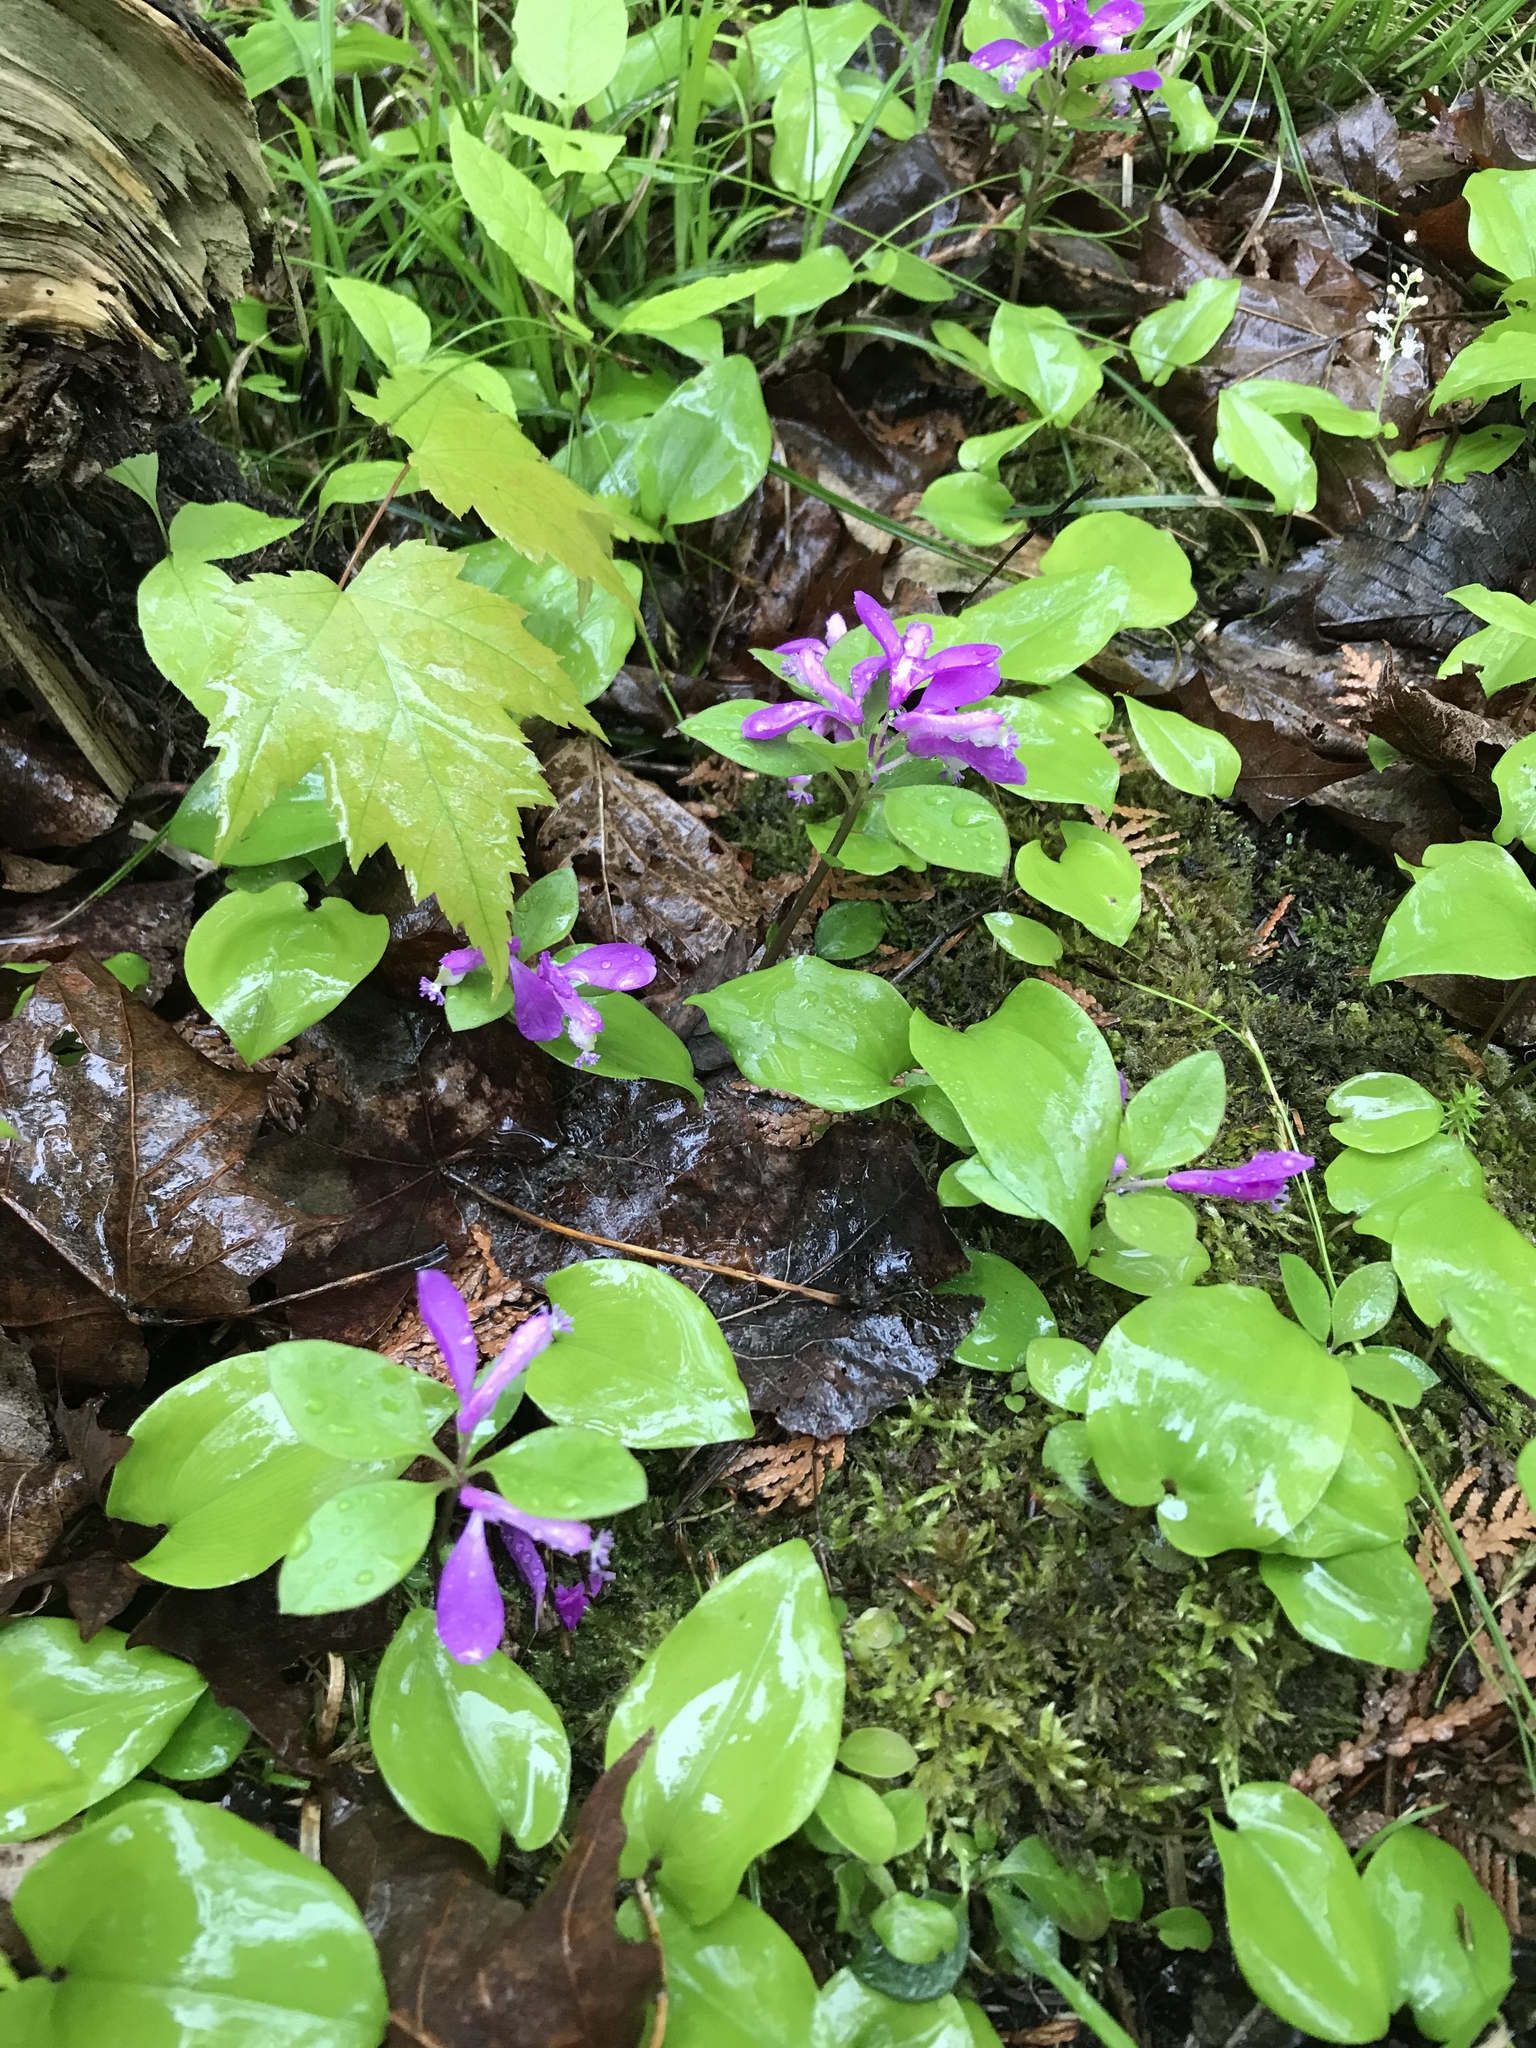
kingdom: Plantae
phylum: Tracheophyta
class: Magnoliopsida
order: Fabales
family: Polygalaceae
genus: Polygaloides
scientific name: Polygaloides paucifolia
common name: Bird-on-the-wing
